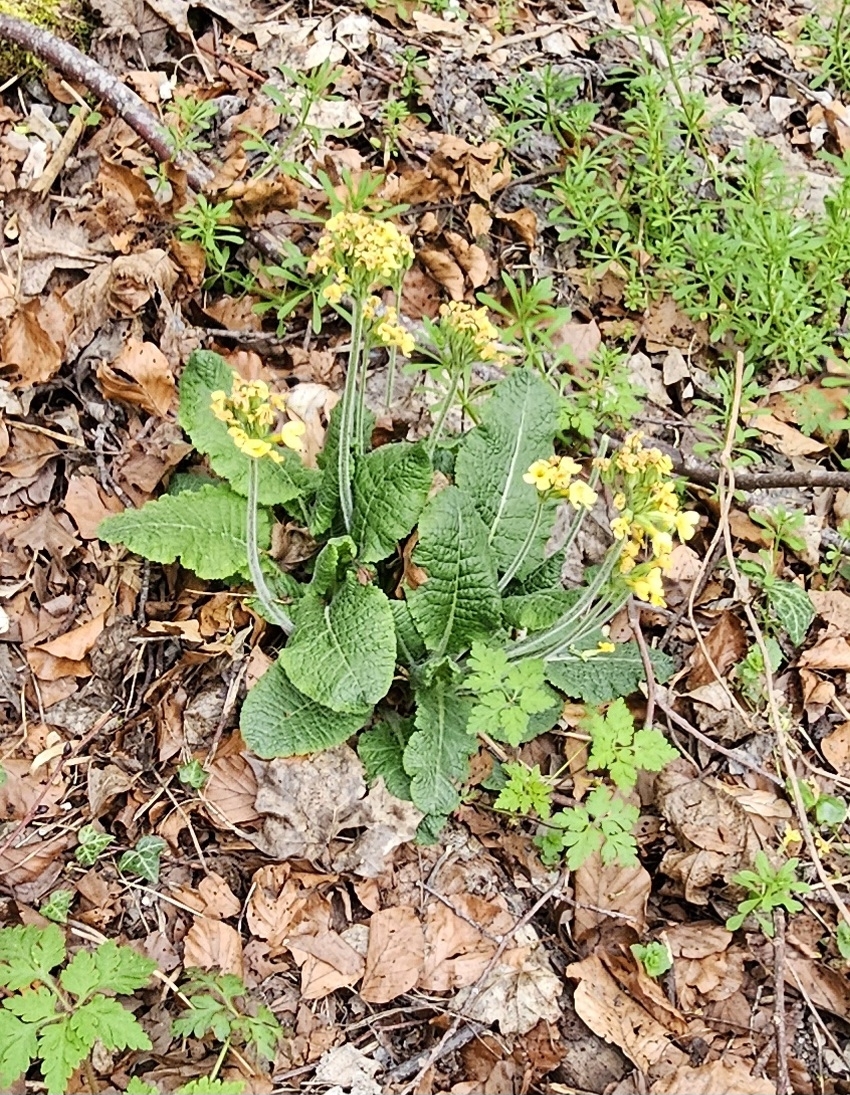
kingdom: Plantae
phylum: Tracheophyta
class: Magnoliopsida
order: Ericales
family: Primulaceae
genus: Primula
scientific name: Primula elatior
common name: Oxlip
